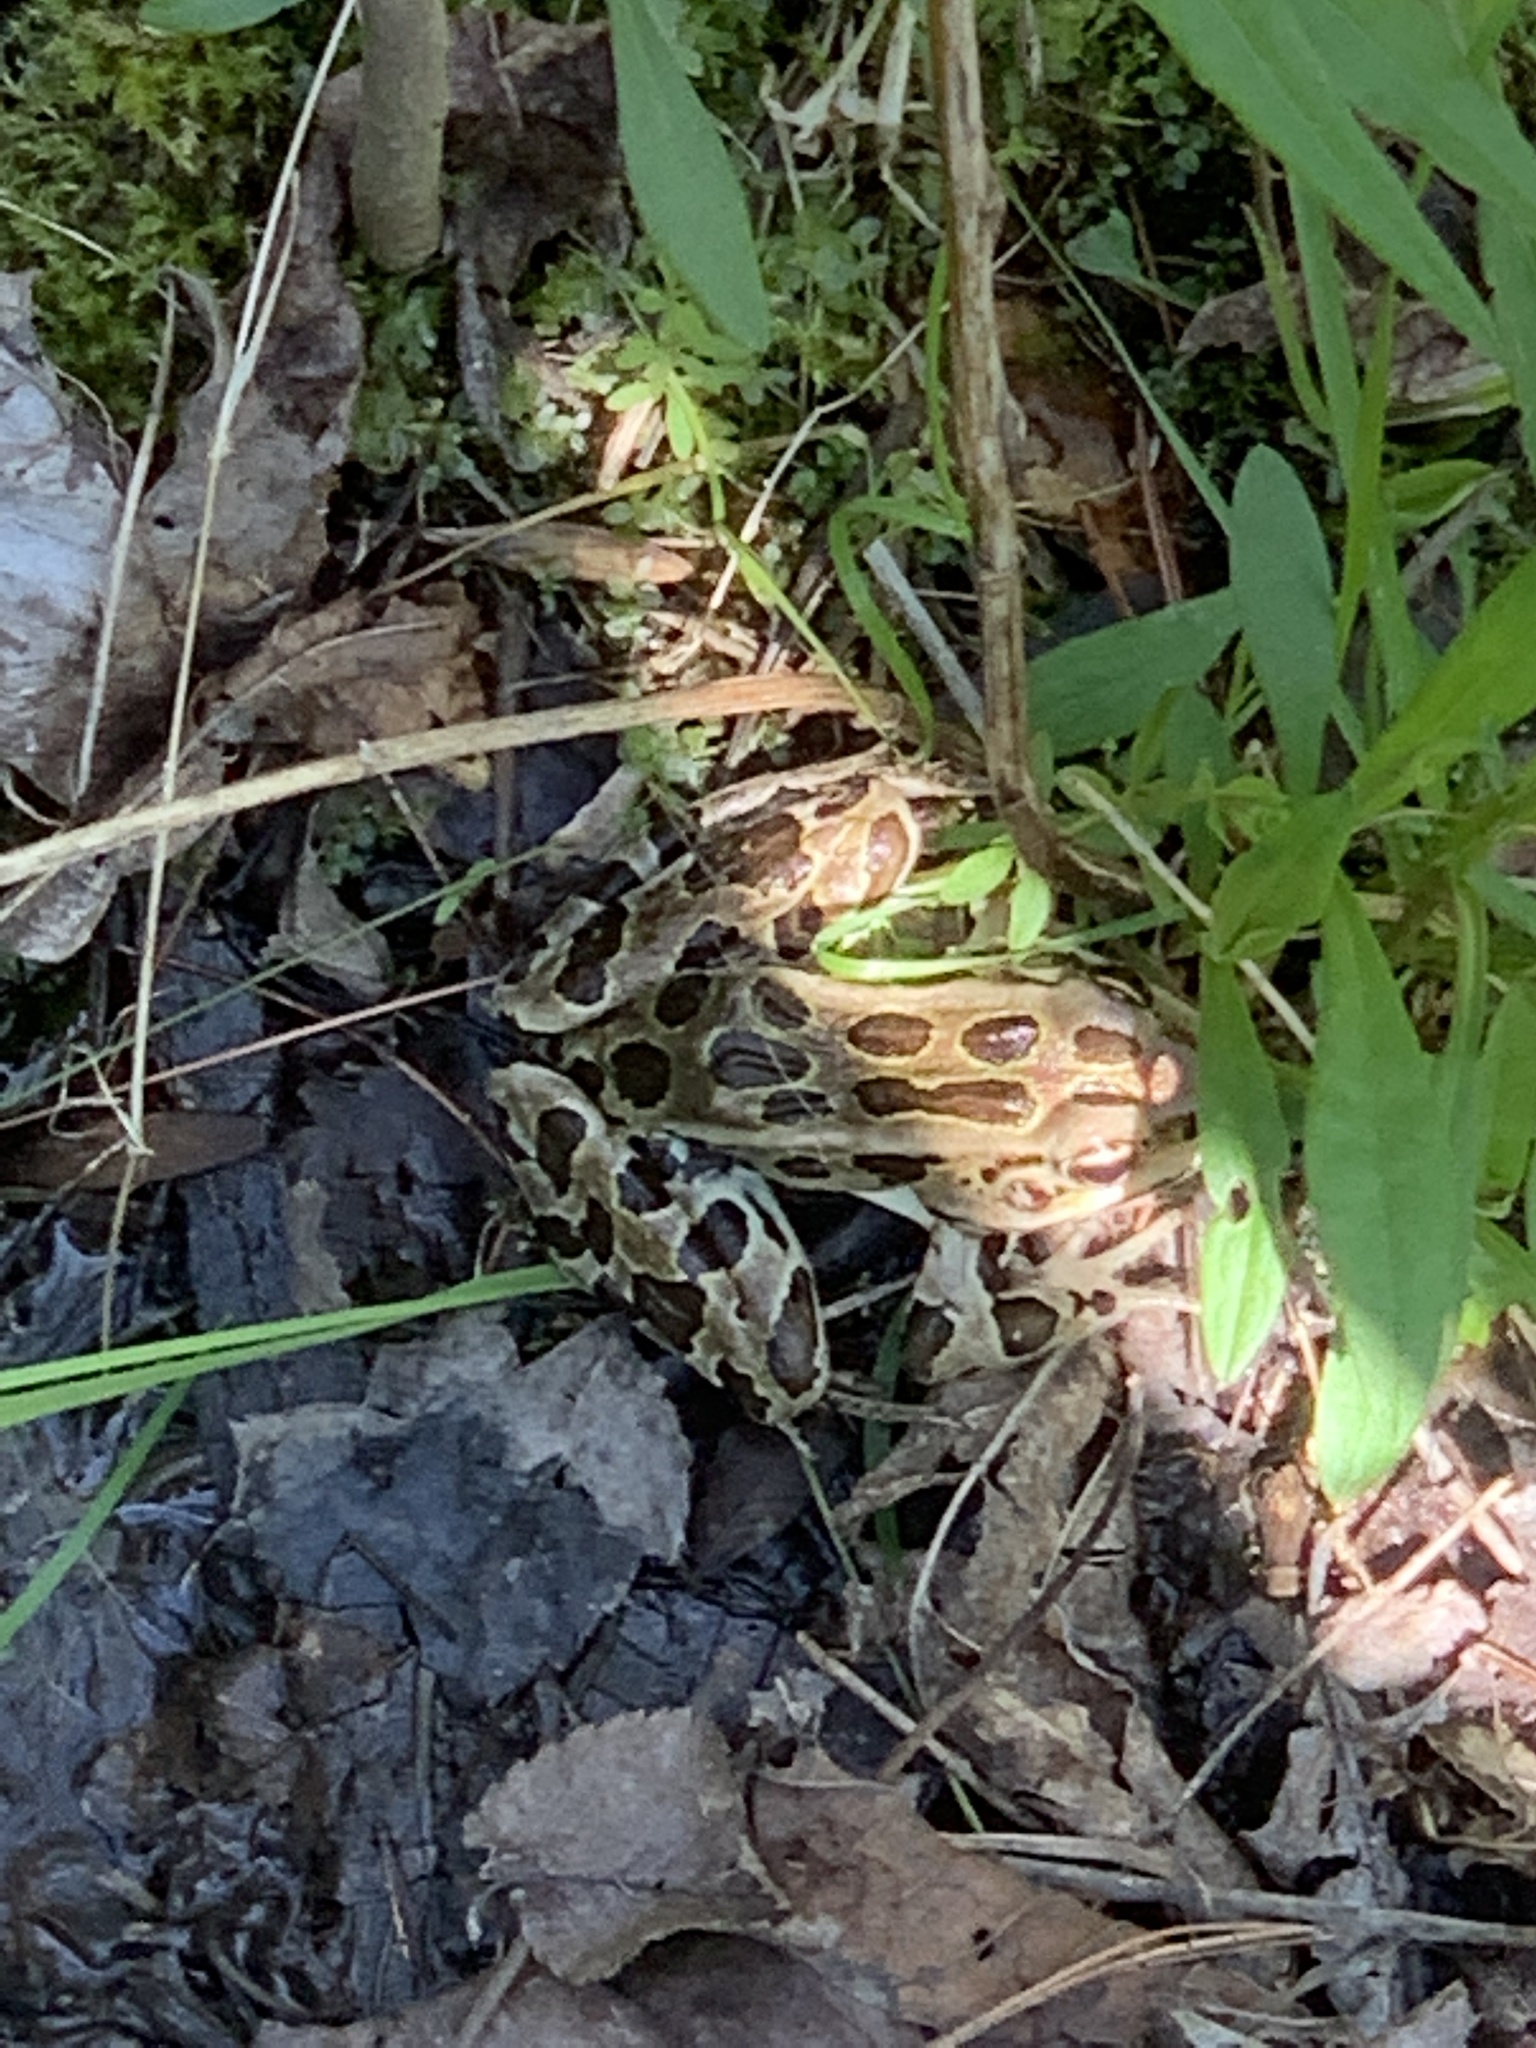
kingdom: Animalia
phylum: Chordata
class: Amphibia
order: Anura
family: Ranidae
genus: Lithobates
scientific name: Lithobates pipiens
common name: Northern leopard frog
